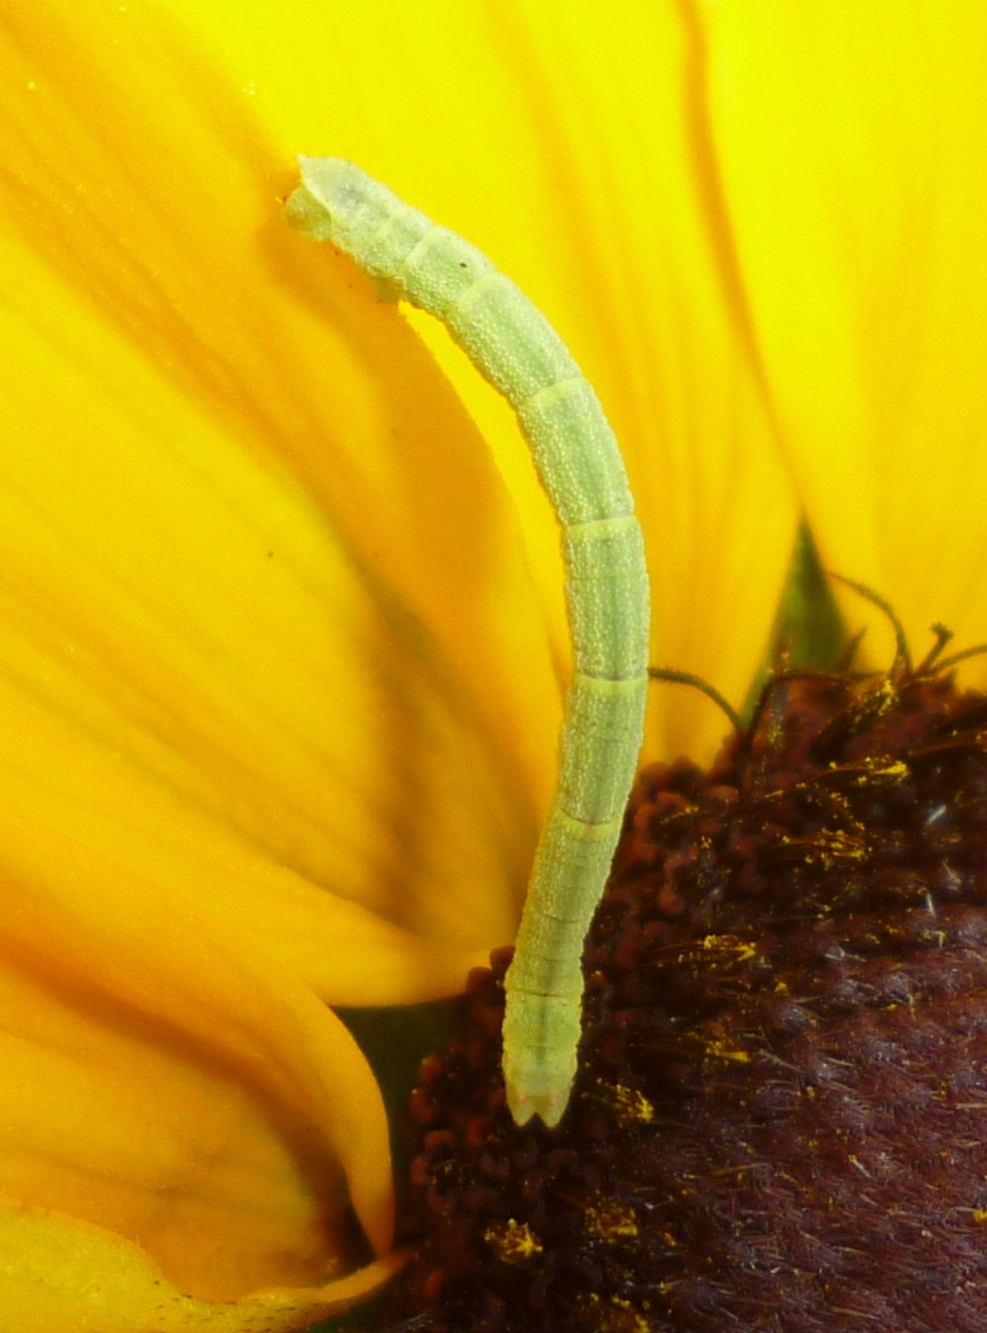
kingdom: Animalia
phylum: Arthropoda
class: Insecta
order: Lepidoptera
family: Geometridae
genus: Chlorochlamys
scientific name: Chlorochlamys chloroleucaria
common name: Blackberry looper
